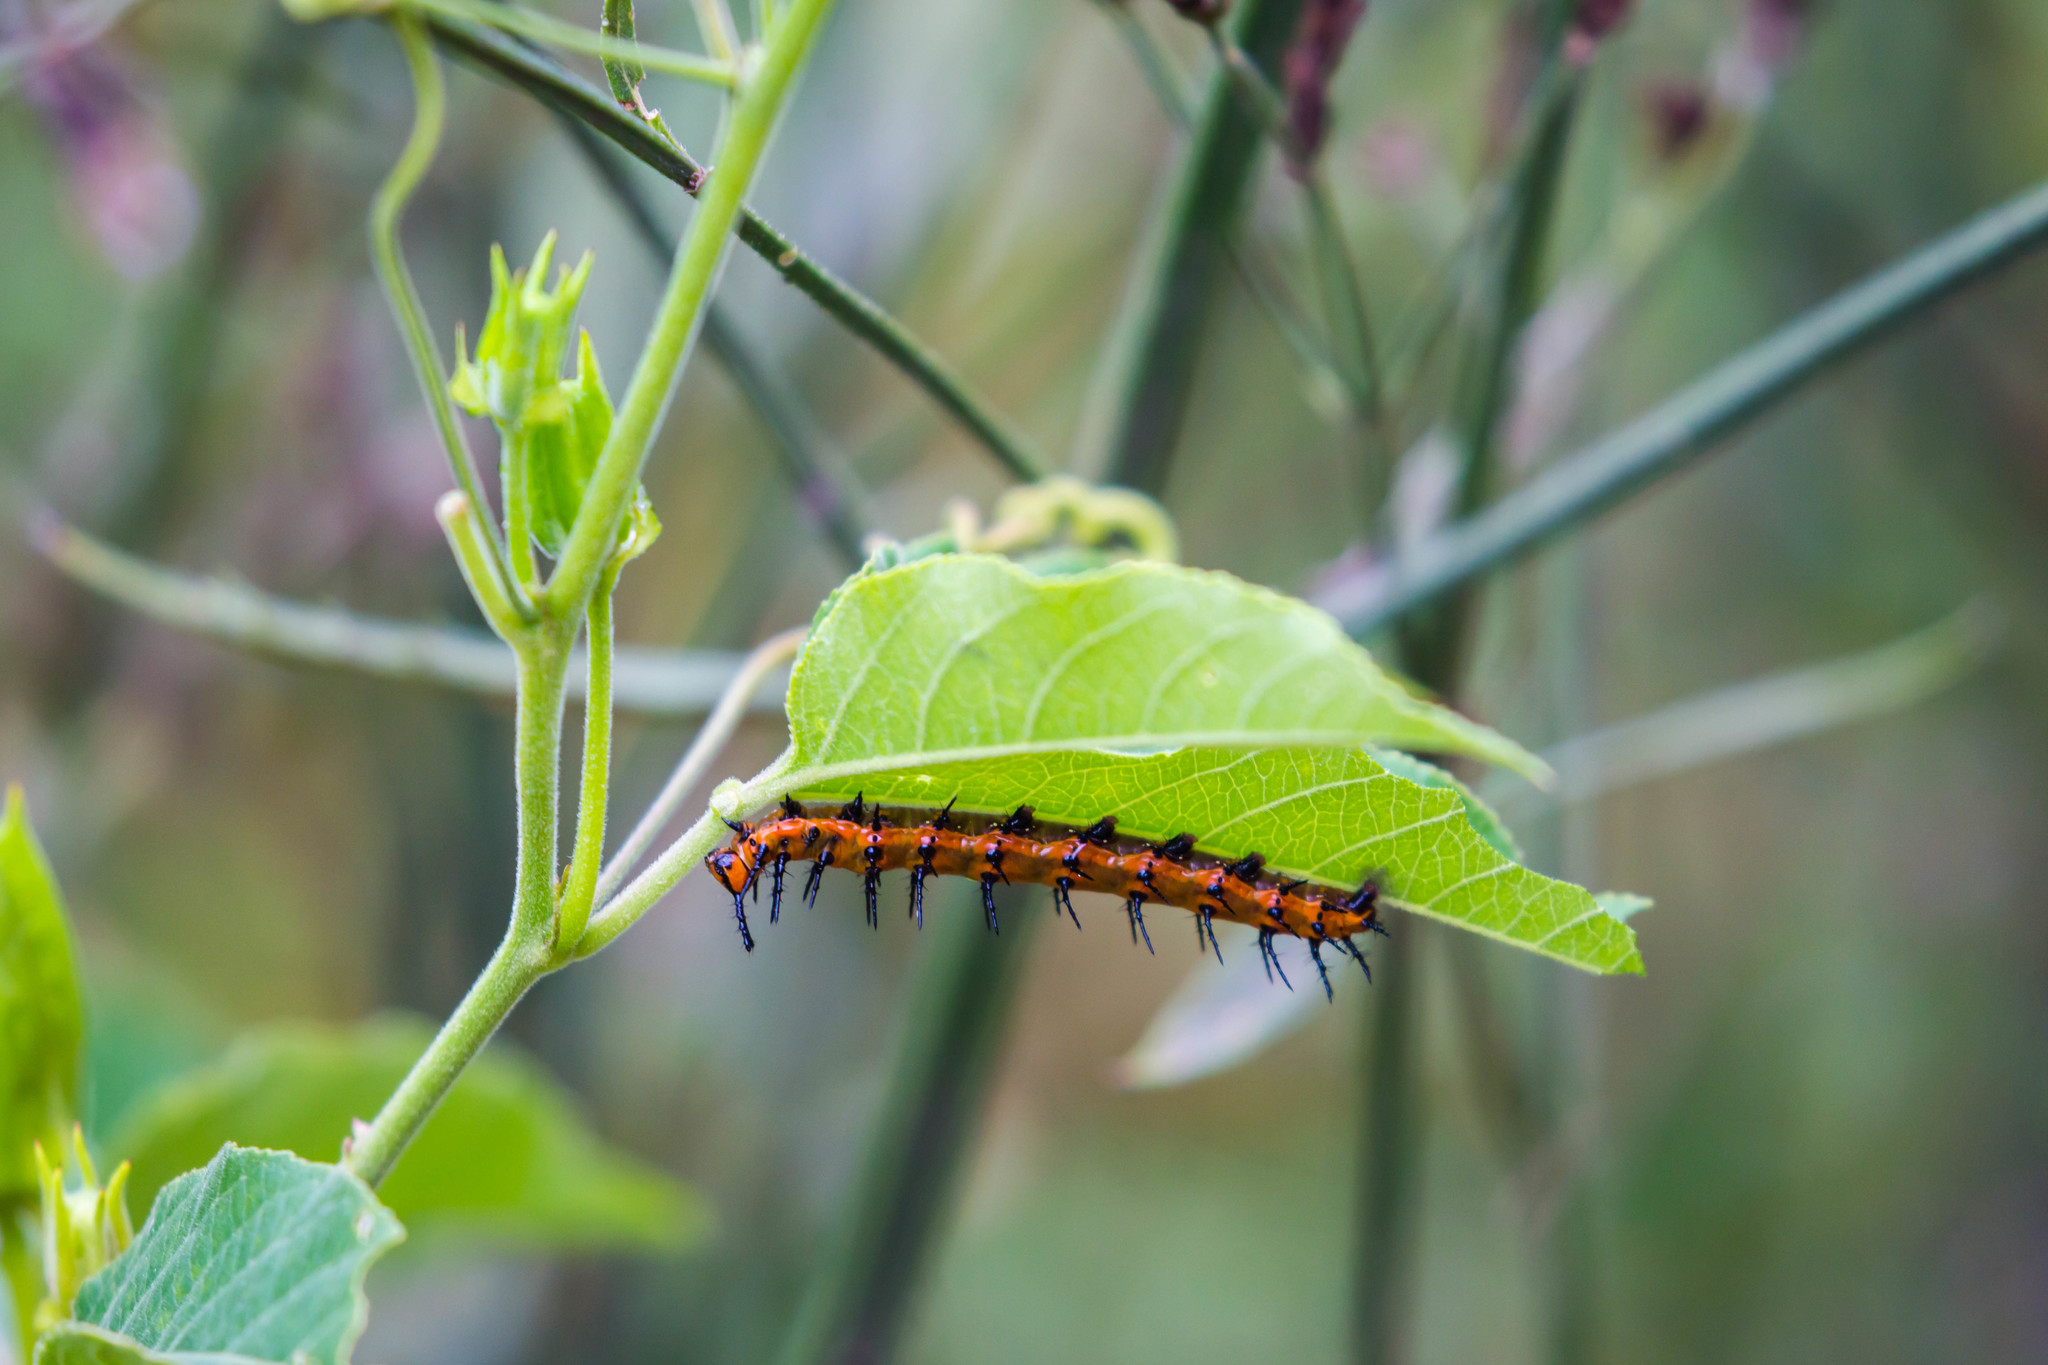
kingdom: Animalia
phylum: Arthropoda
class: Insecta
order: Lepidoptera
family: Nymphalidae
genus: Dione
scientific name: Dione vanillae
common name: Gulf fritillary
